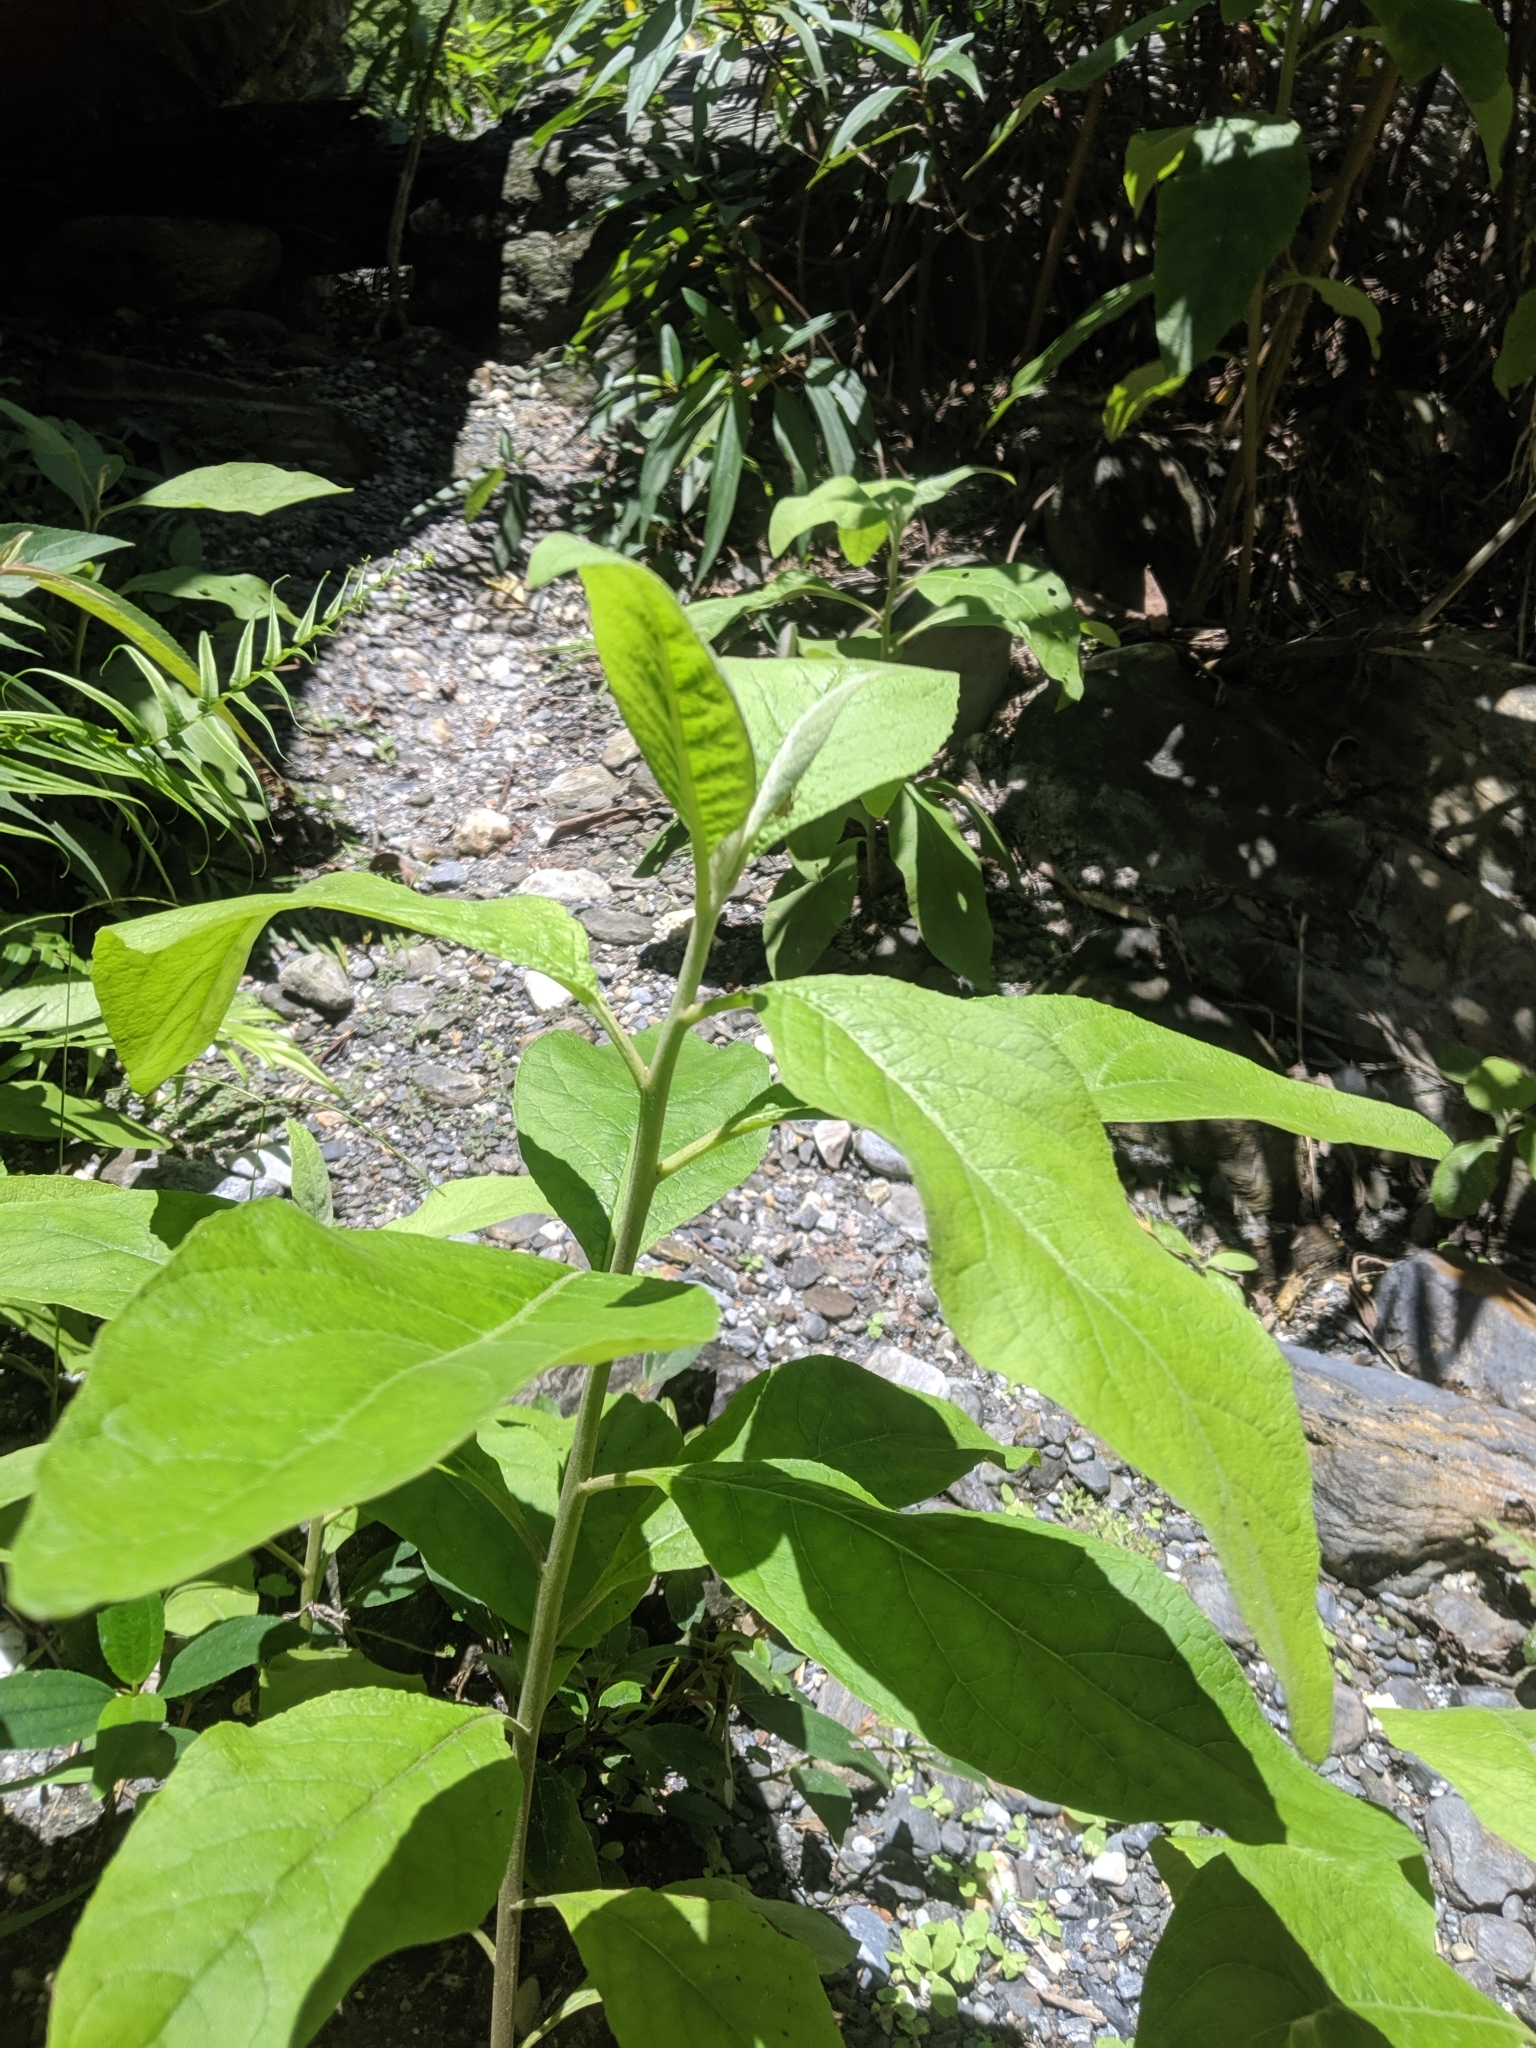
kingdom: Plantae
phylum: Tracheophyta
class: Magnoliopsida
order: Asterales
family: Asteraceae
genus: Pluchea
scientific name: Pluchea carolinensis
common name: Marsh fleabane
